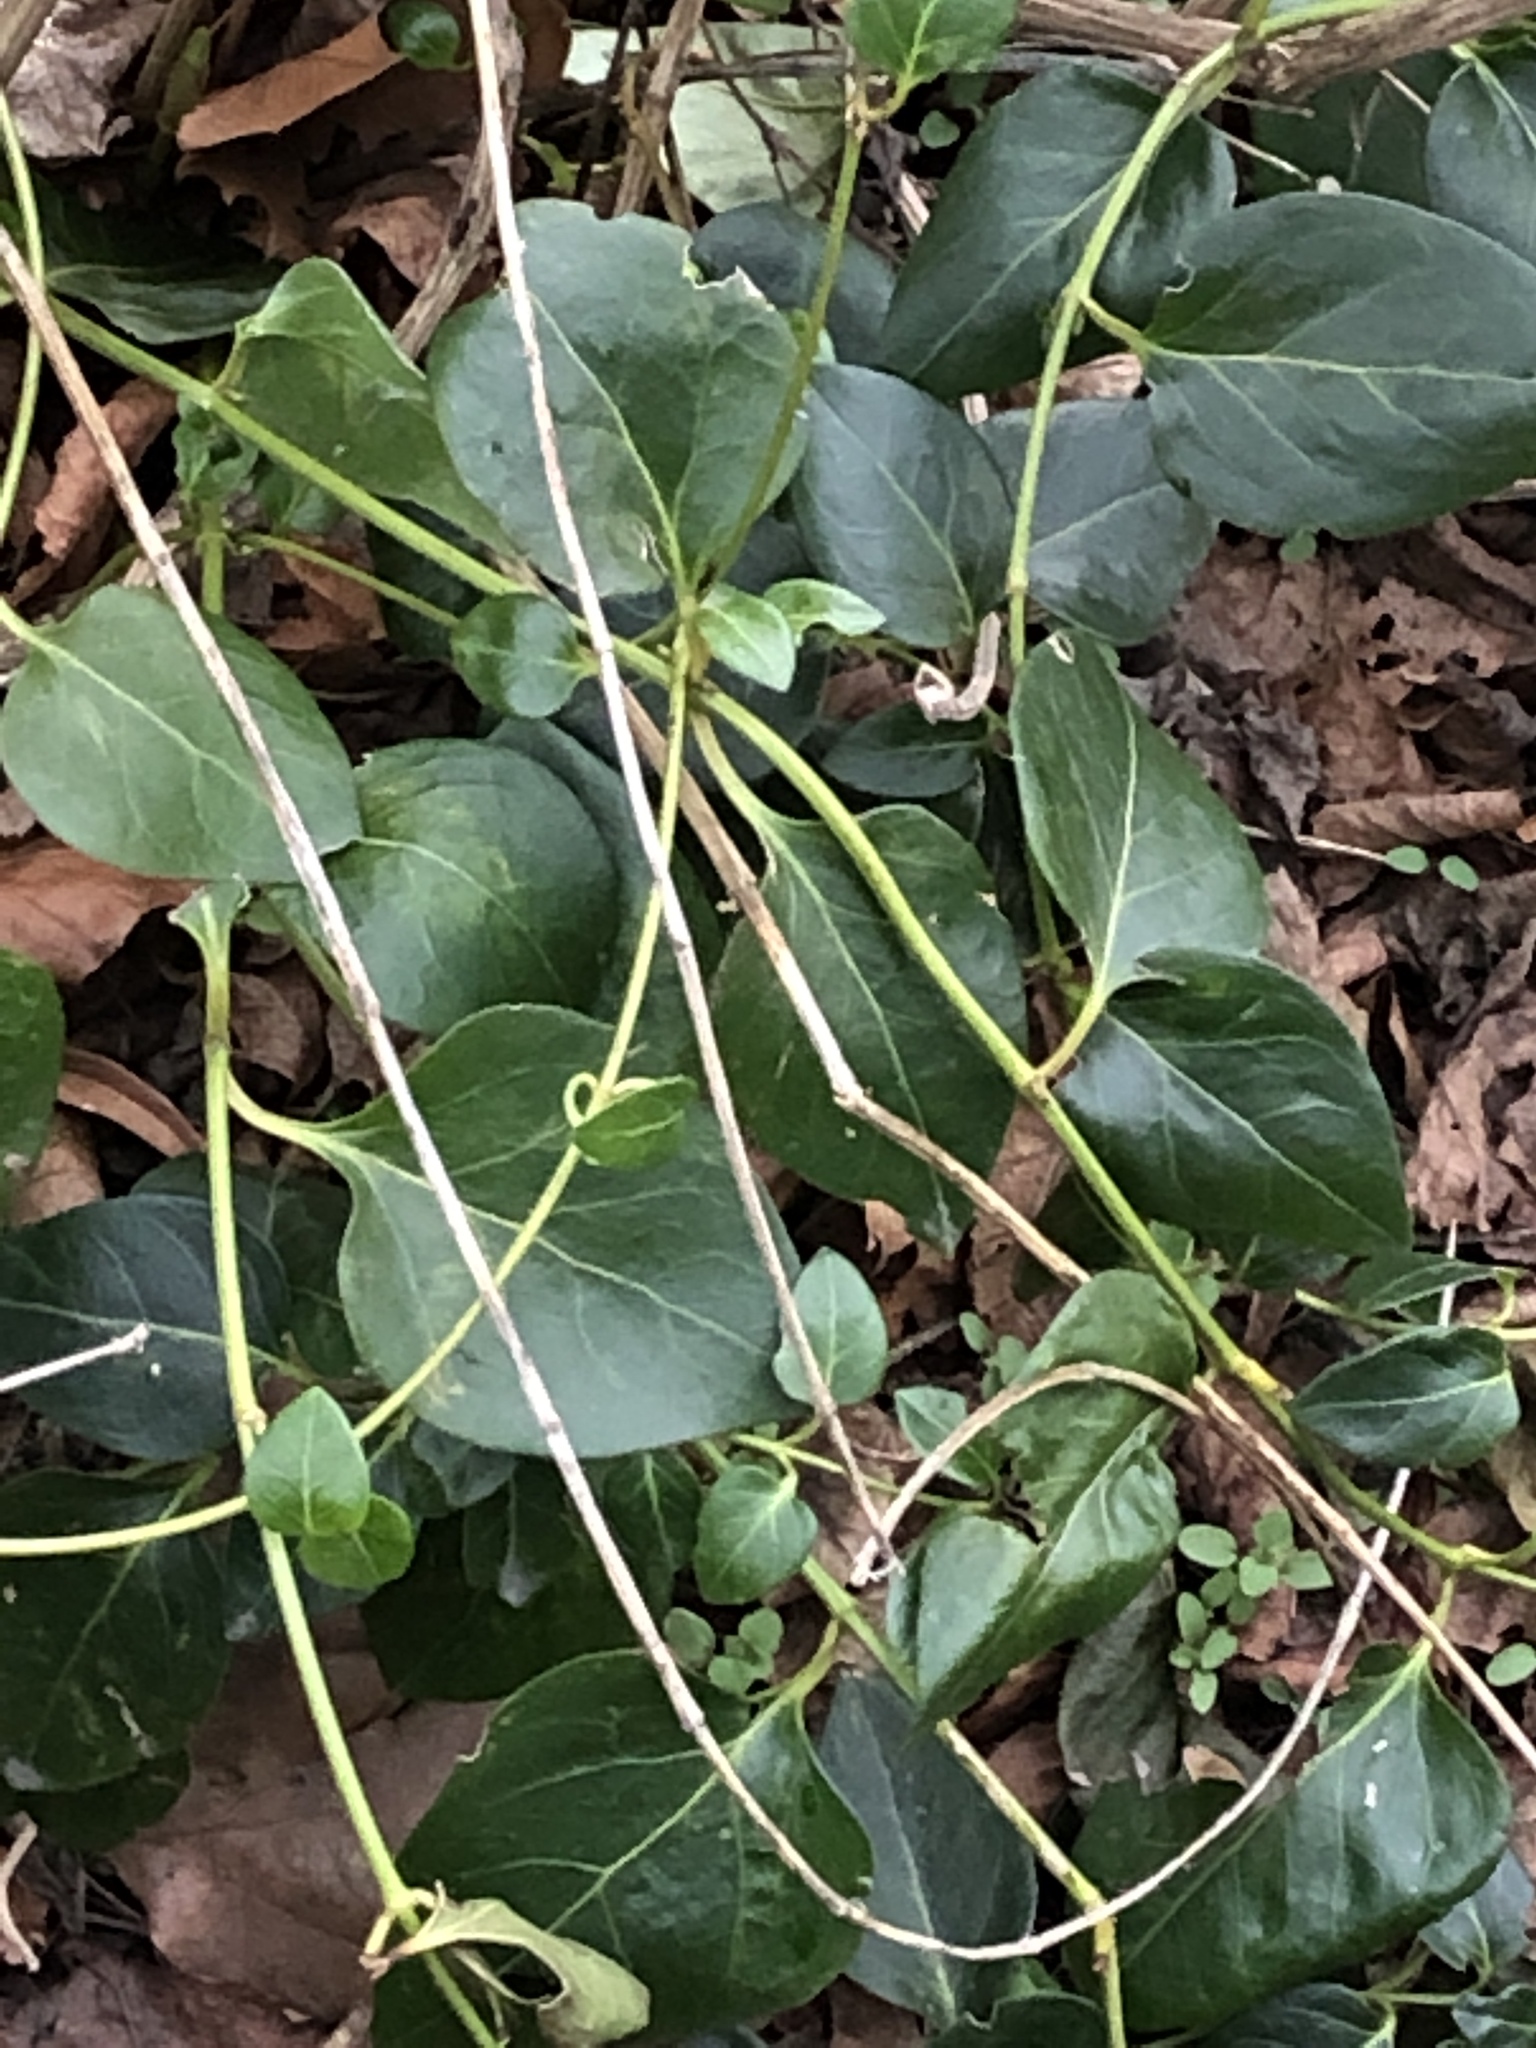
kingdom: Plantae
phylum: Tracheophyta
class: Magnoliopsida
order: Gentianales
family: Apocynaceae
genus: Vinca
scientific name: Vinca major
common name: Greater periwinkle
